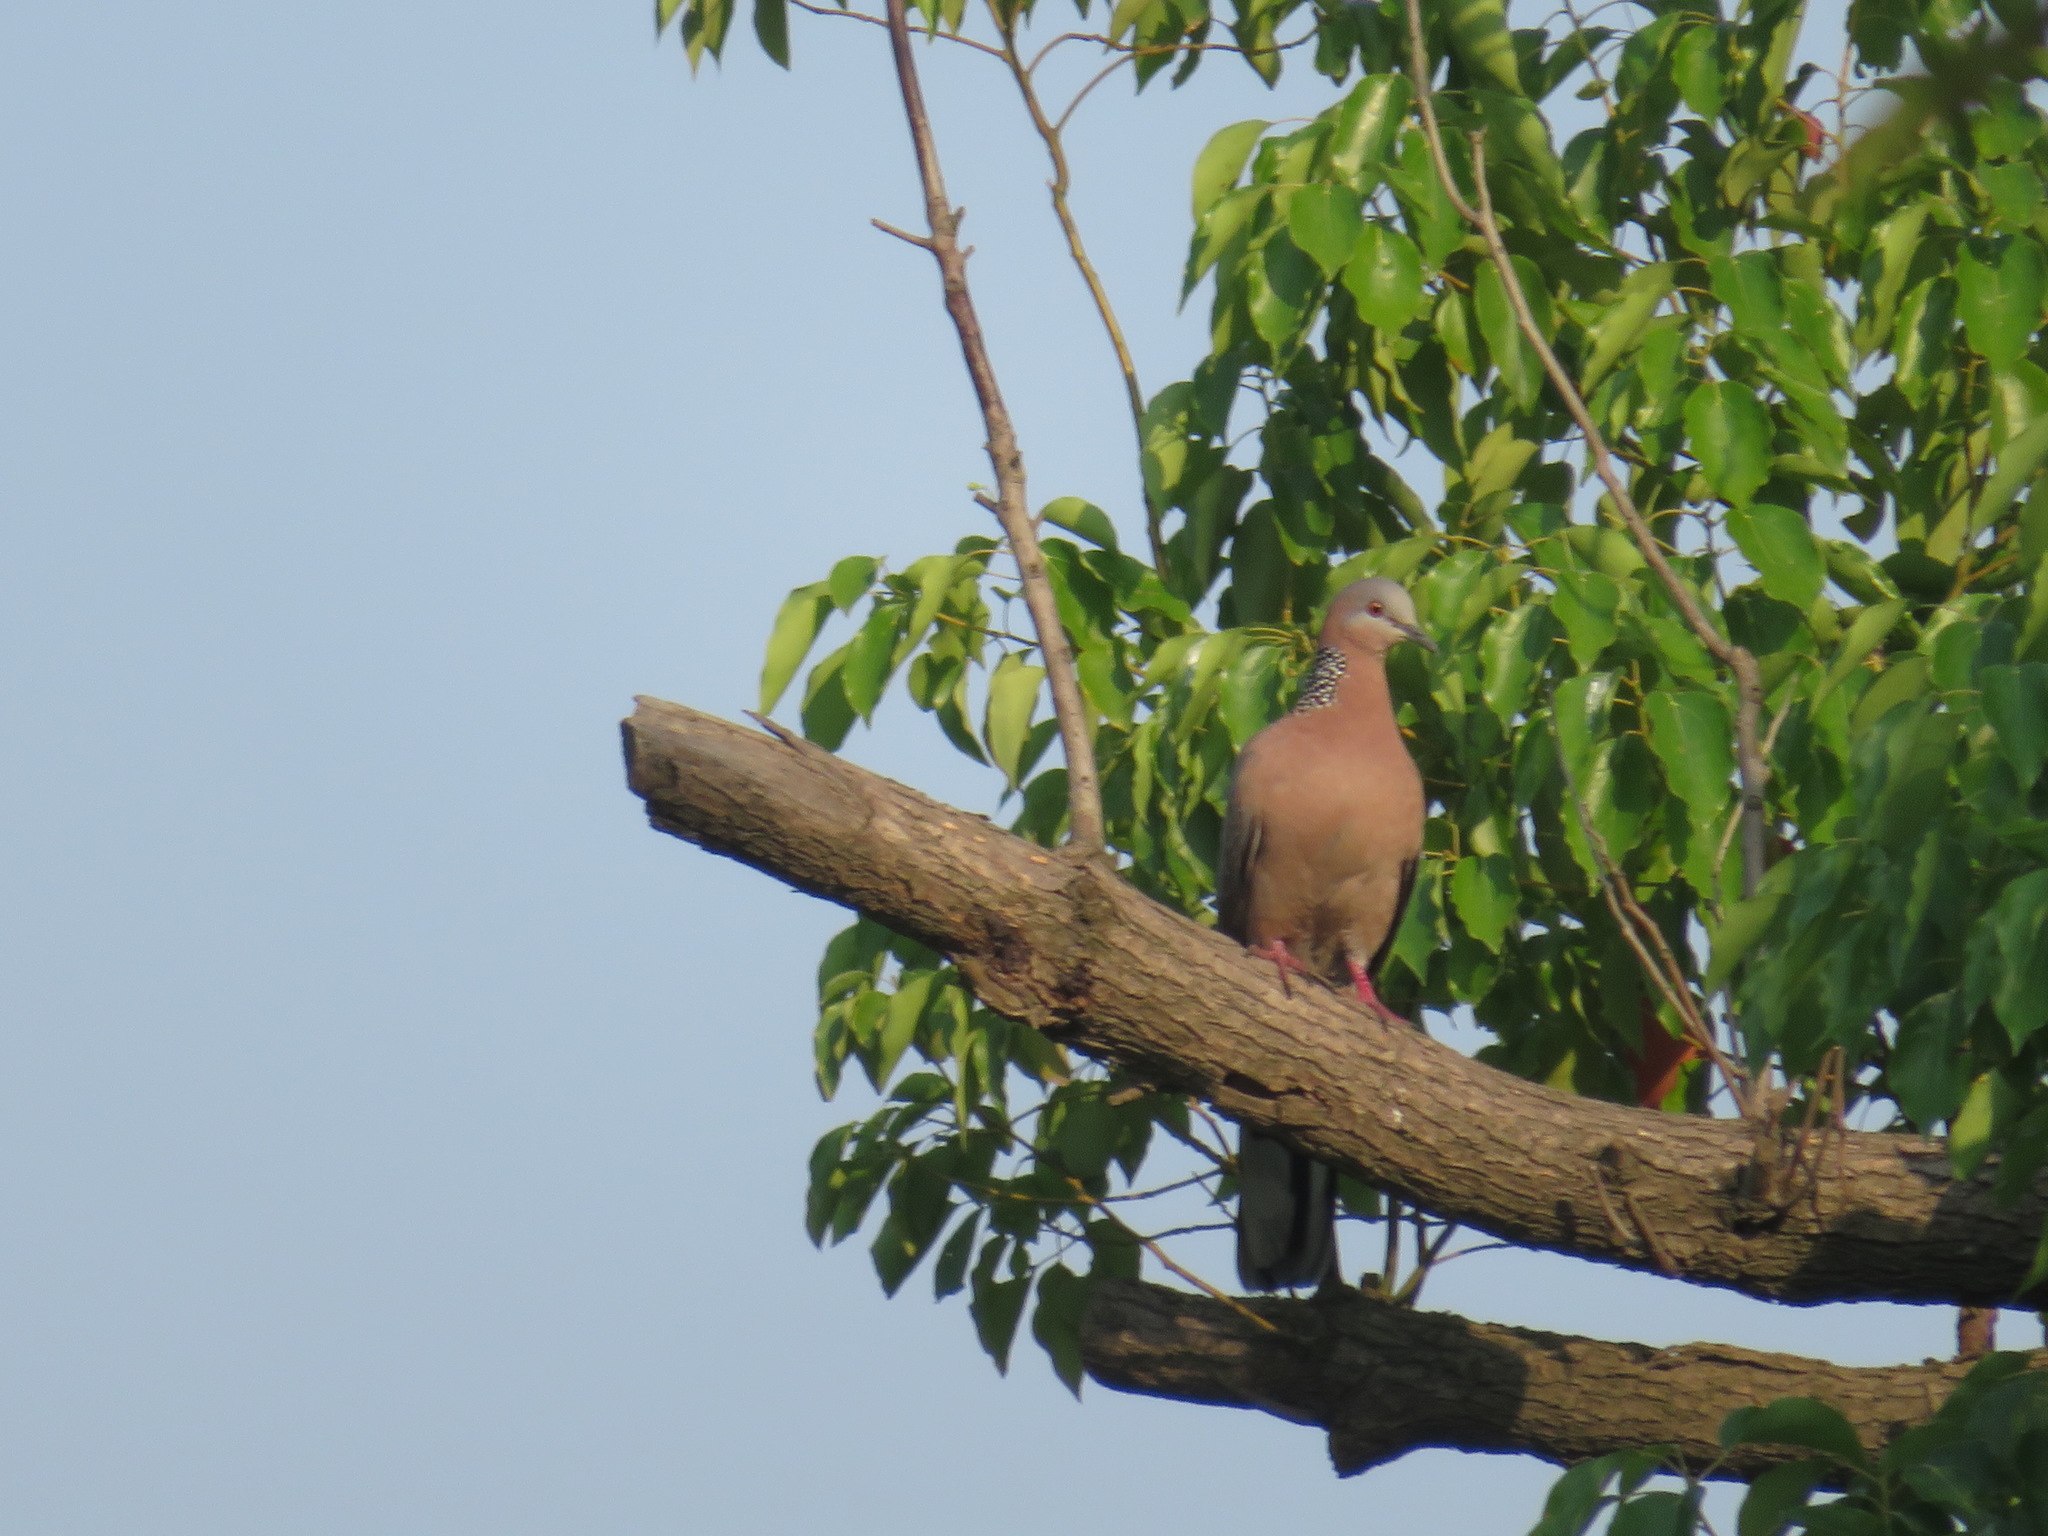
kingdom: Animalia
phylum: Chordata
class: Aves
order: Columbiformes
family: Columbidae
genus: Spilopelia
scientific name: Spilopelia chinensis
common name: Spotted dove
